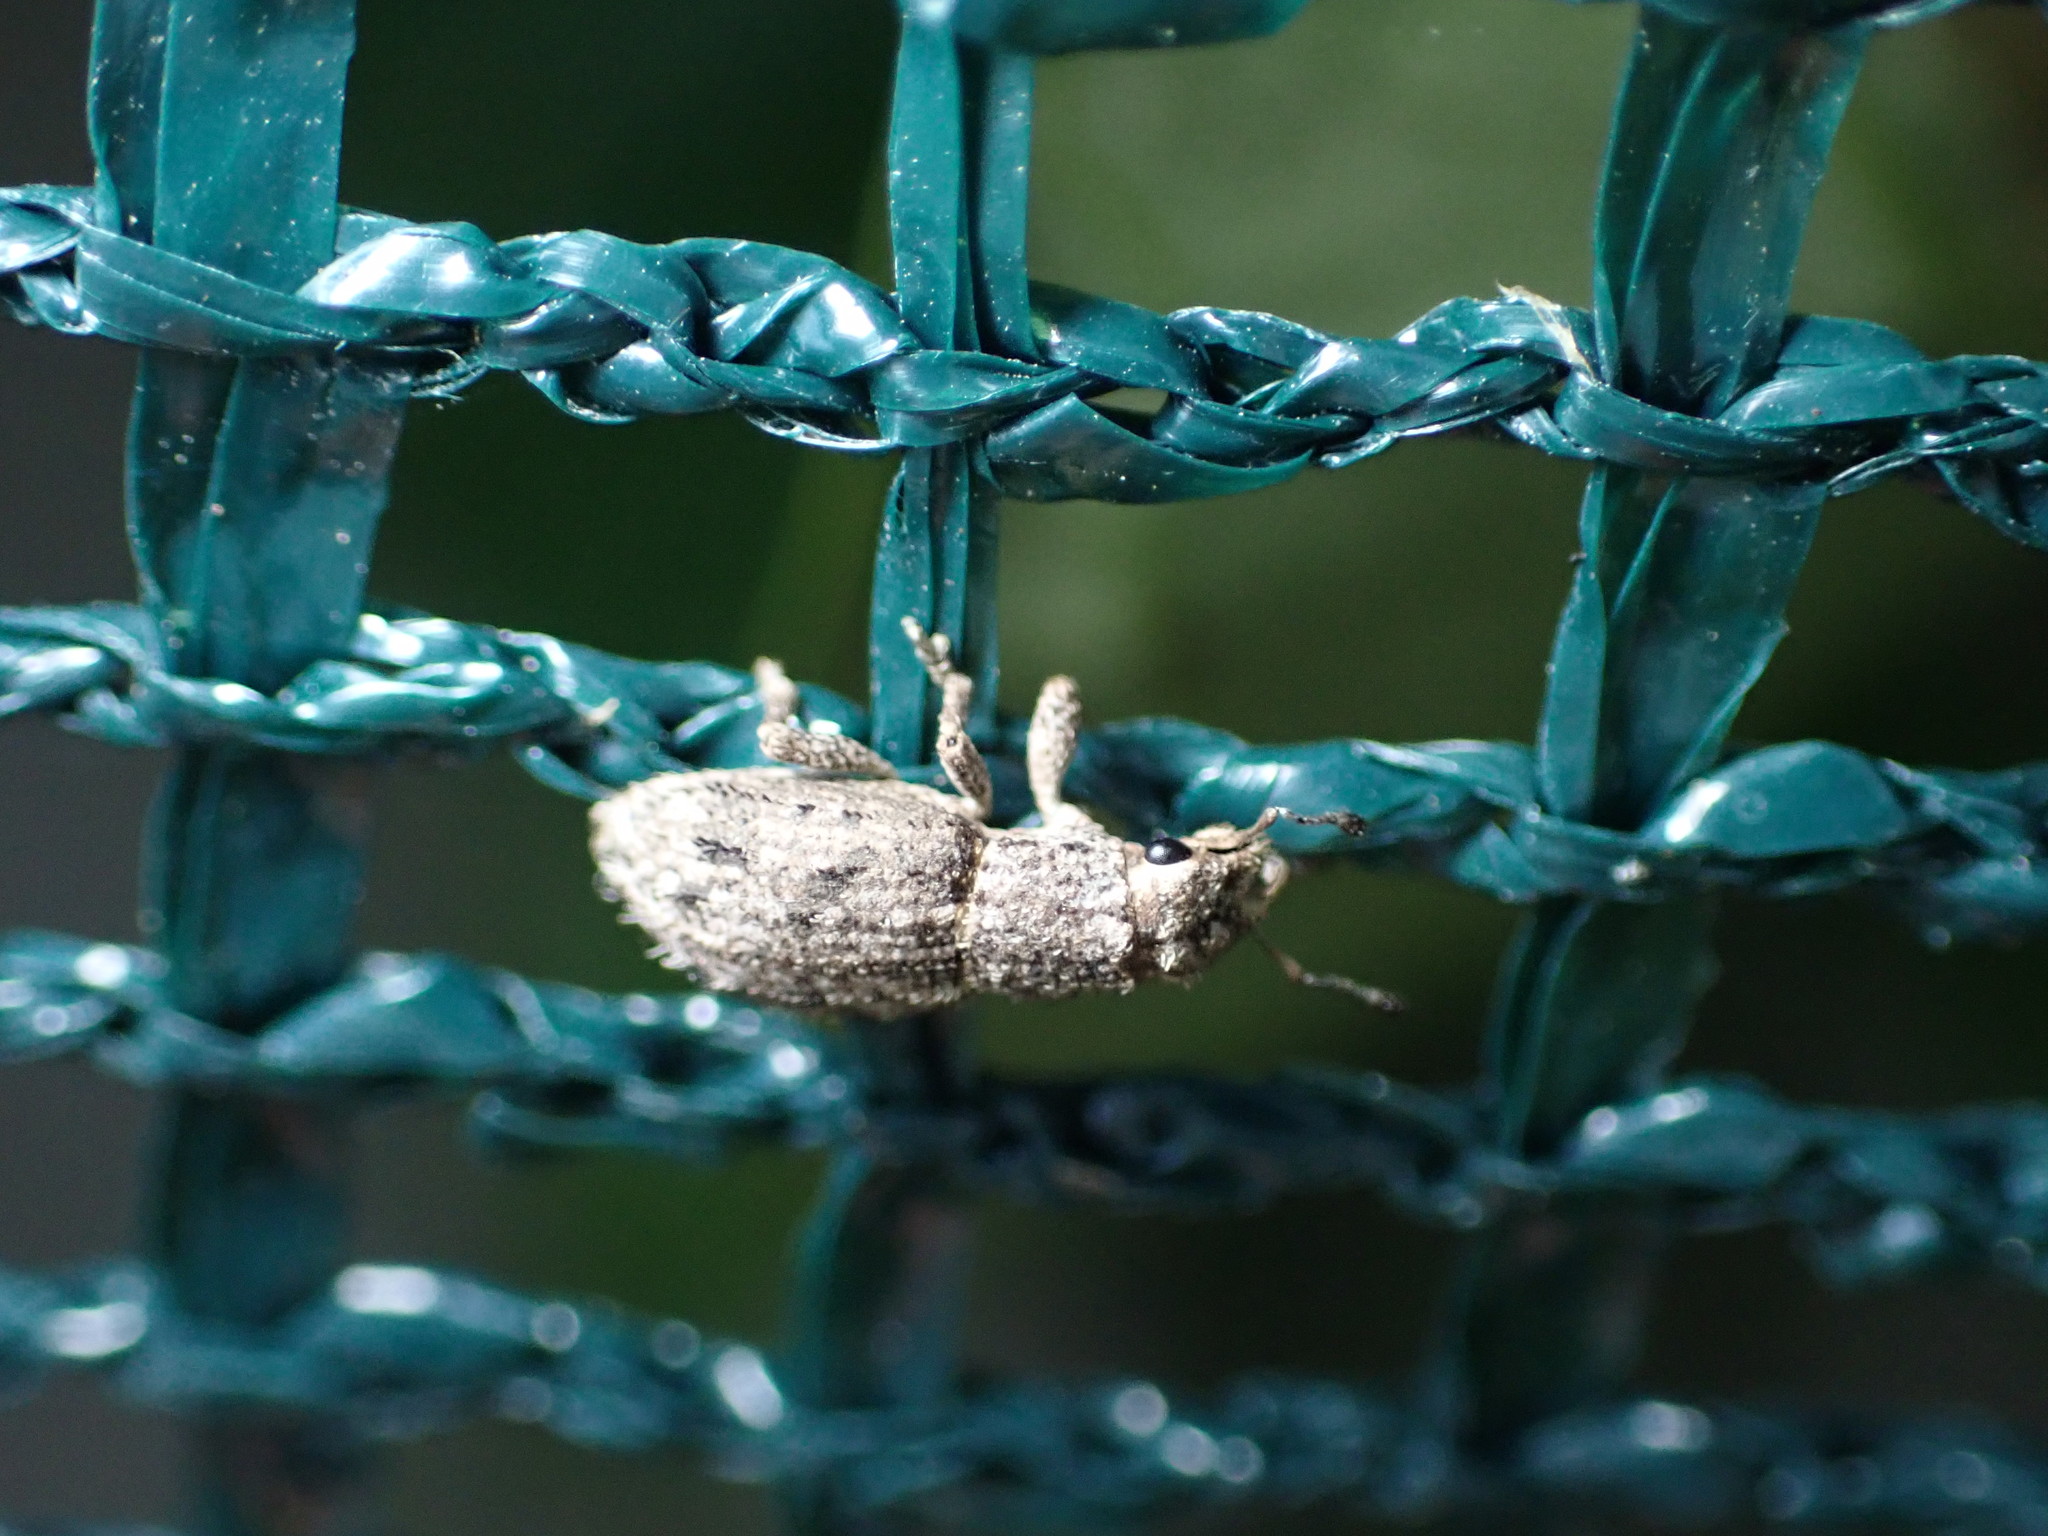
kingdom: Animalia
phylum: Arthropoda
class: Insecta
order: Coleoptera
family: Curculionidae
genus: Floresianus
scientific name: Floresianus sordidus
